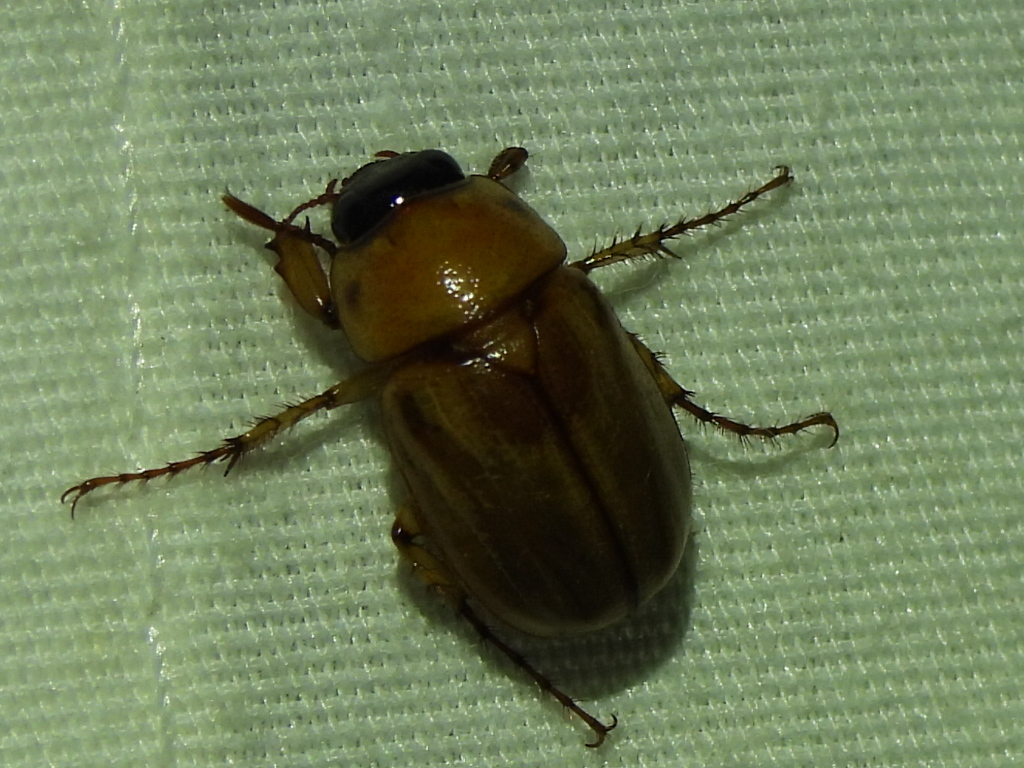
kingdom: Animalia
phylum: Arthropoda
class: Insecta
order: Coleoptera
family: Scarabaeidae
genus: Cyclocephala
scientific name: Cyclocephala lurida
